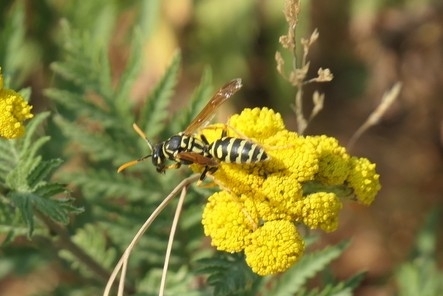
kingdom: Animalia
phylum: Arthropoda
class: Insecta
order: Hymenoptera
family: Eumenidae
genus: Polistes
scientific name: Polistes dominula
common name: Paper wasp
